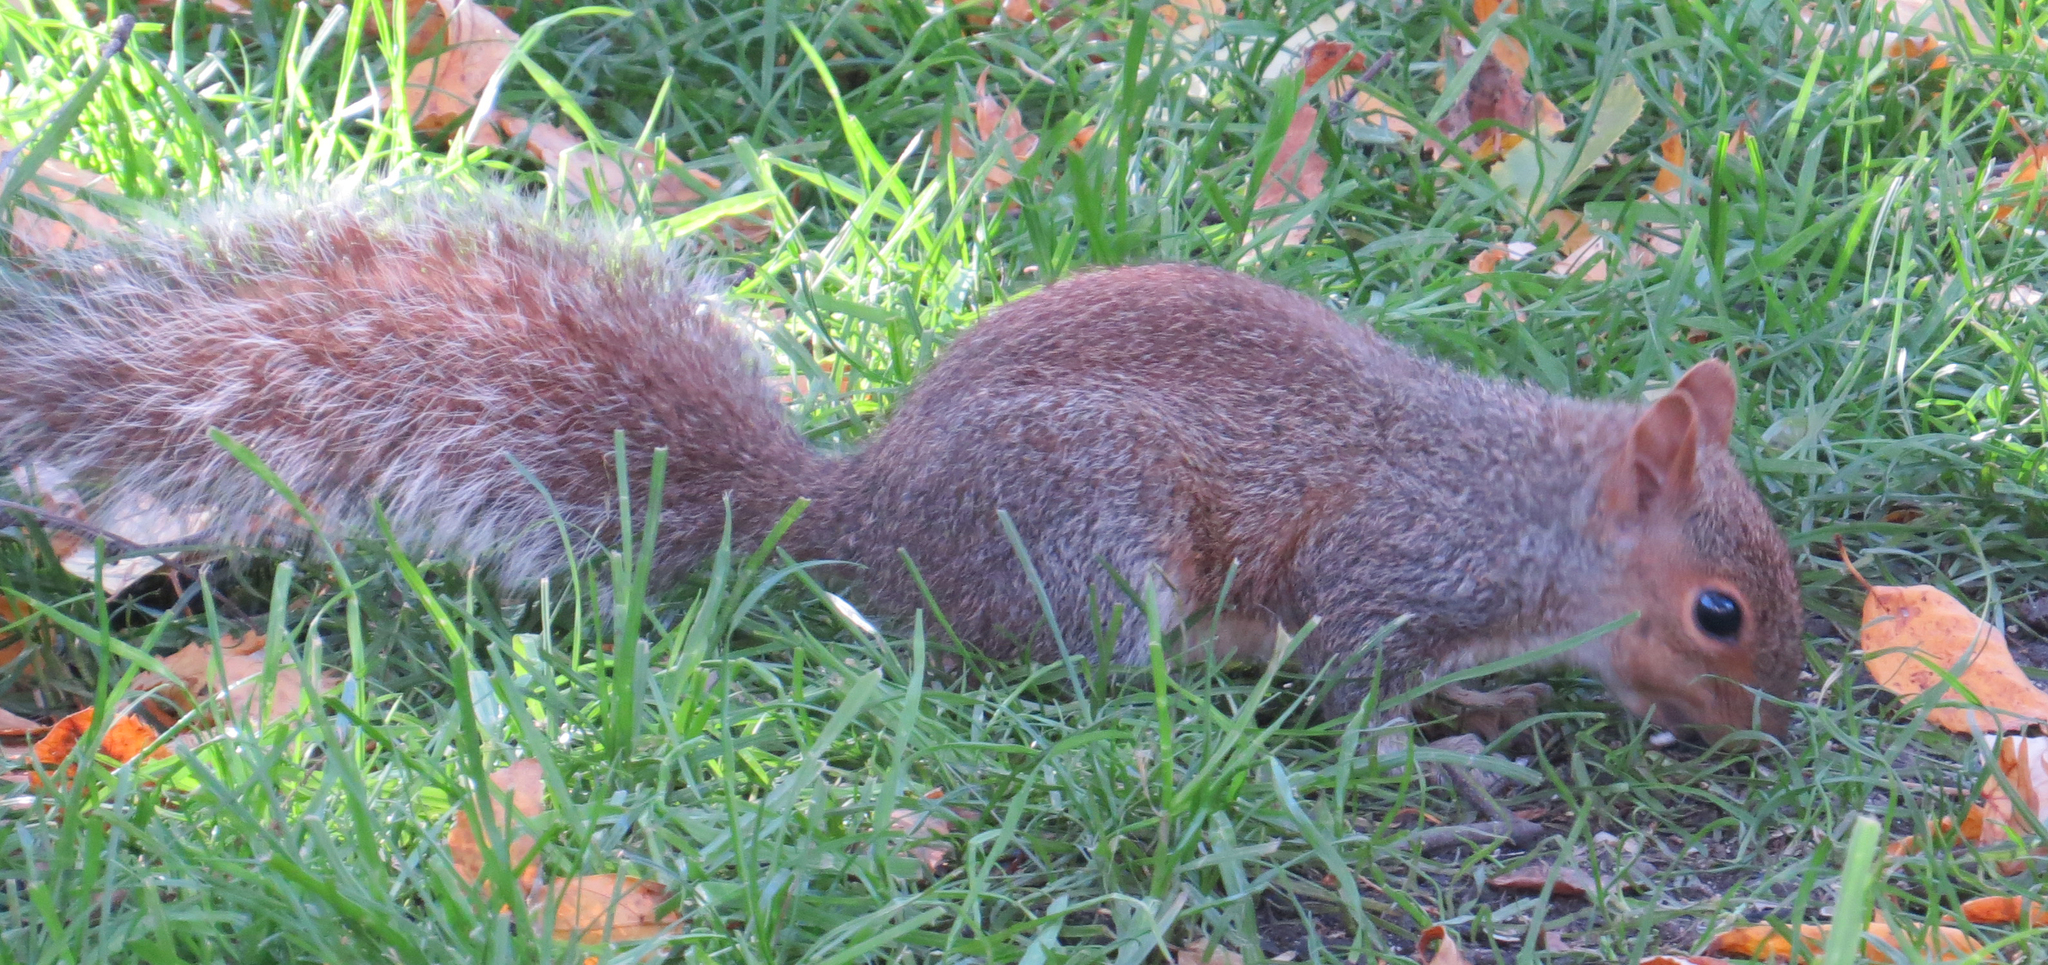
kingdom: Animalia
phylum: Chordata
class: Mammalia
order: Rodentia
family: Sciuridae
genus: Sciurus
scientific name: Sciurus carolinensis
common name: Eastern gray squirrel
